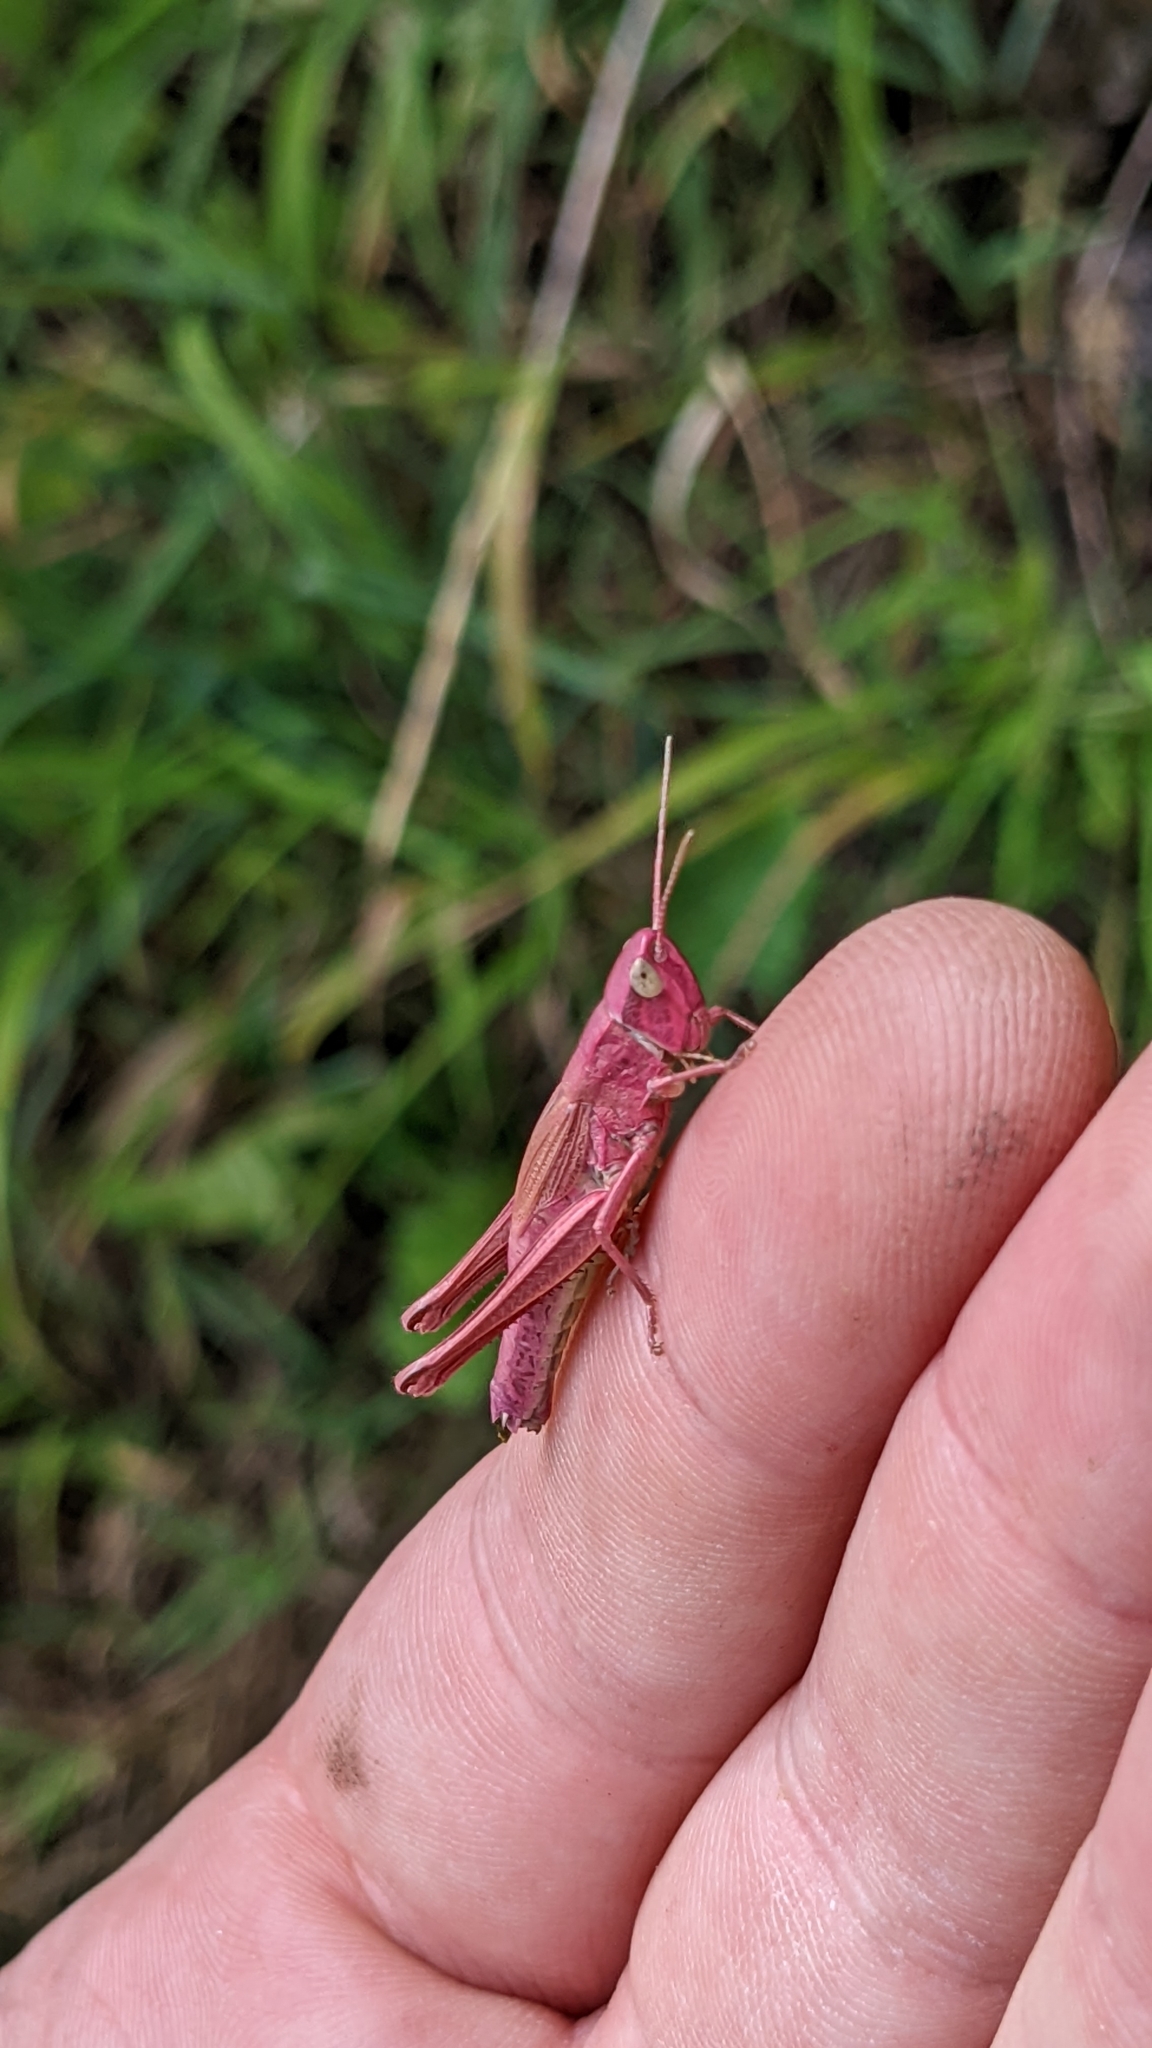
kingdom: Animalia
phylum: Arthropoda
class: Insecta
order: Orthoptera
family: Acrididae
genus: Chrysochraon
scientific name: Chrysochraon dispar
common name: Large gold grasshopper
